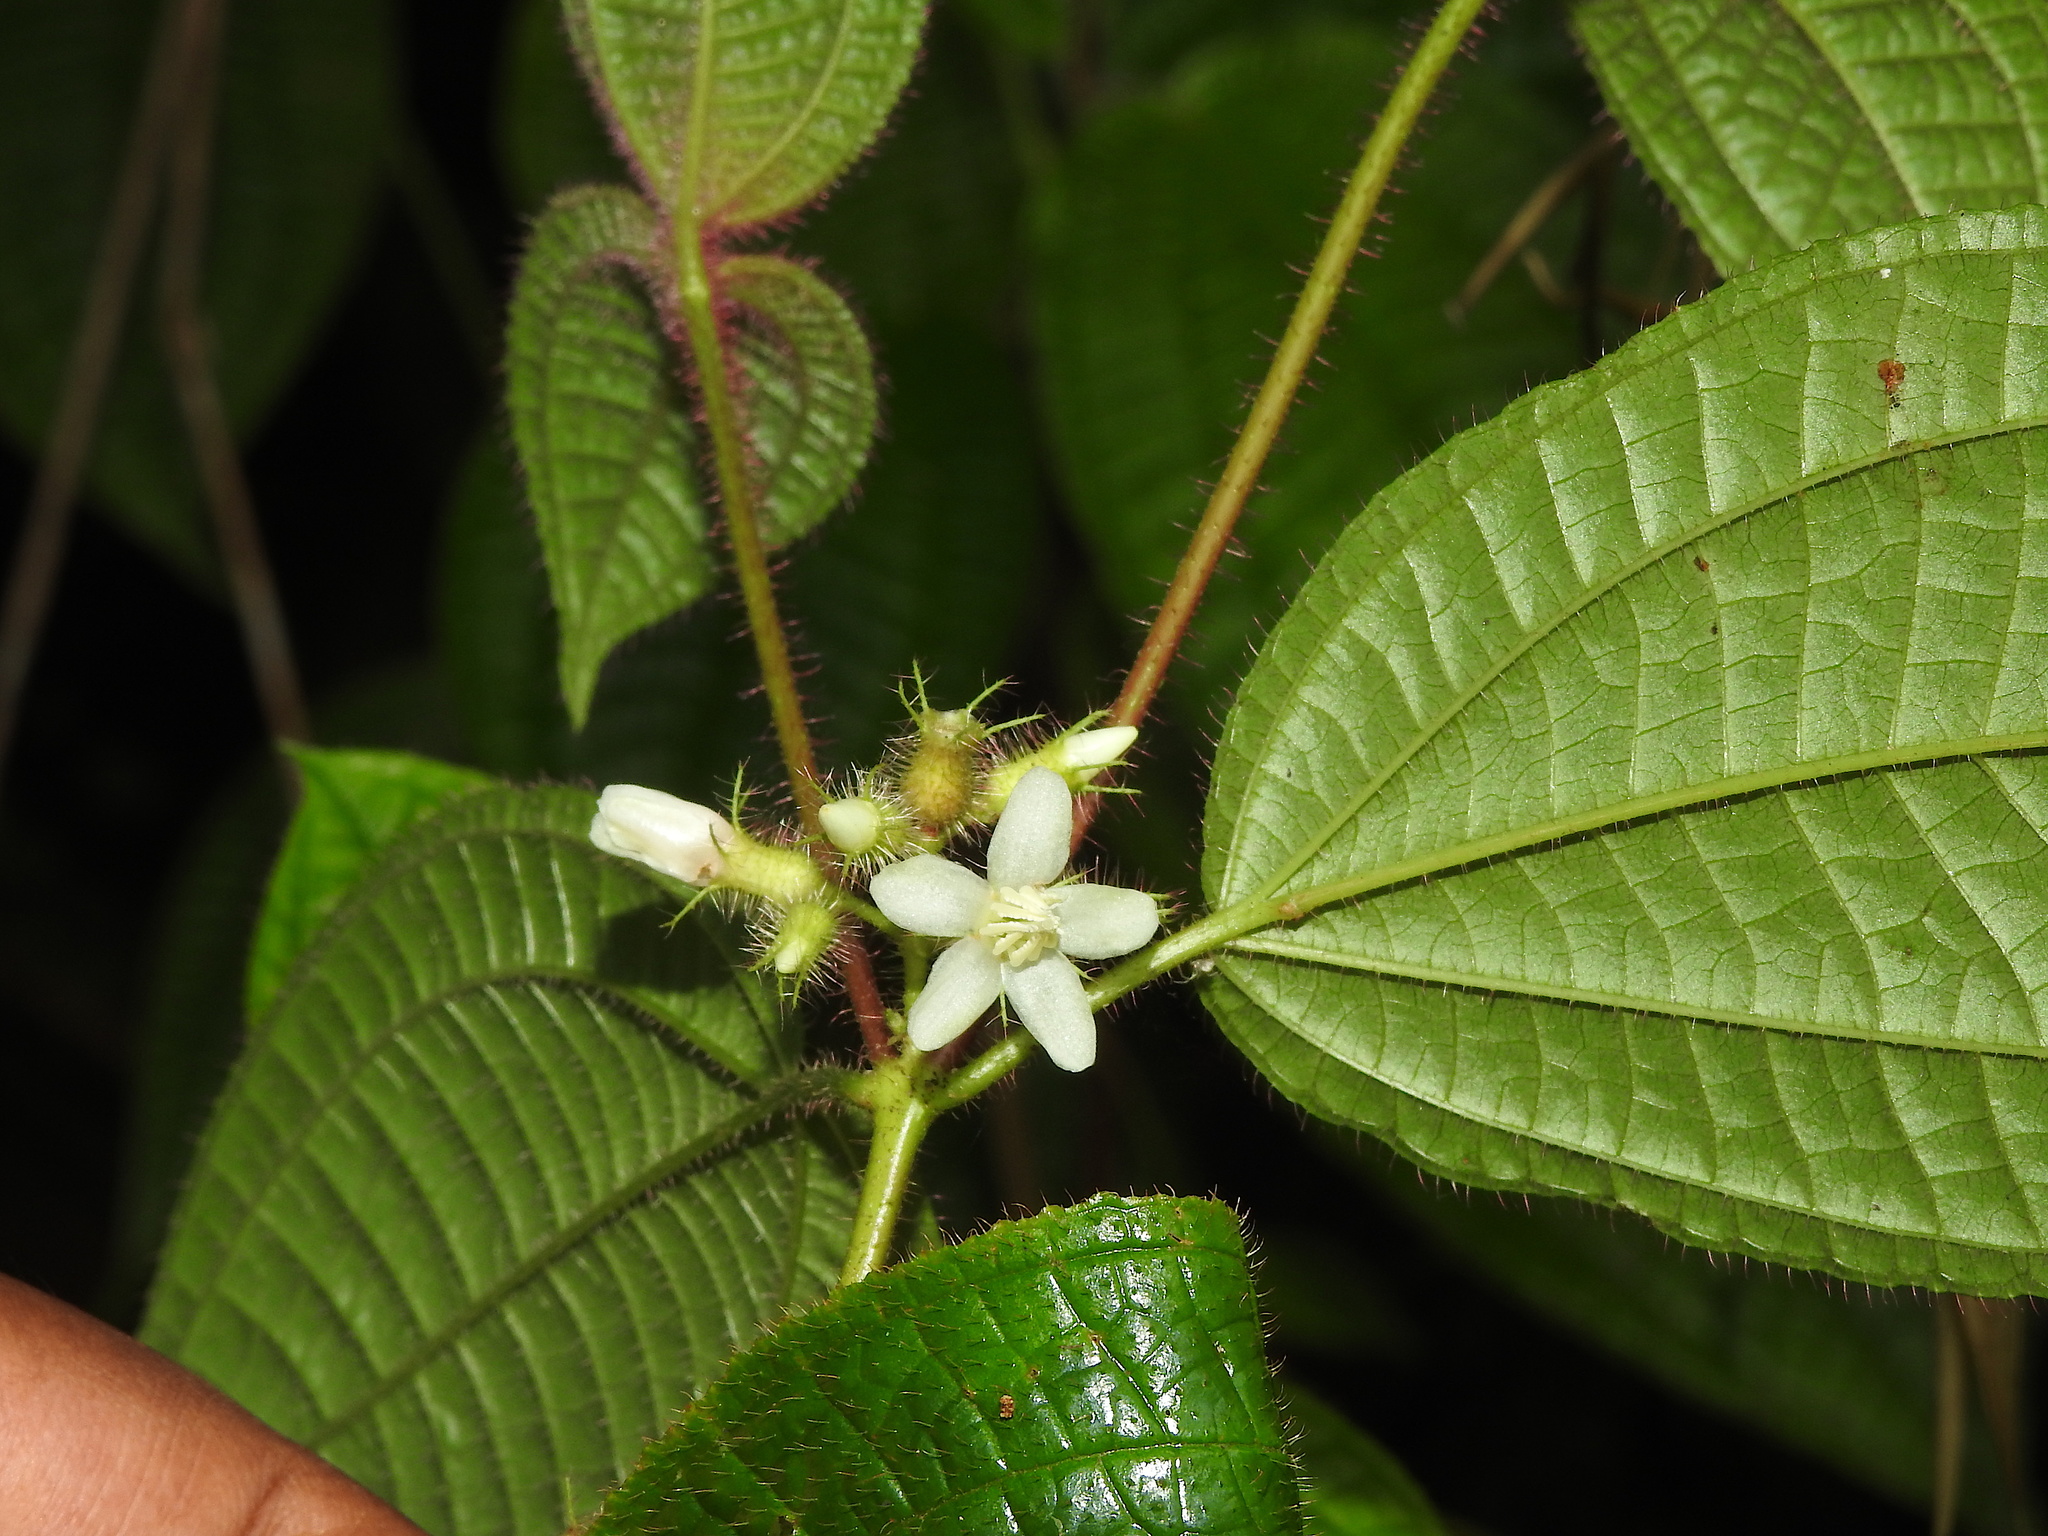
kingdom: Plantae
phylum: Tracheophyta
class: Magnoliopsida
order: Myrtales
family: Melastomataceae
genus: Miconia
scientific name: Miconia crenata
